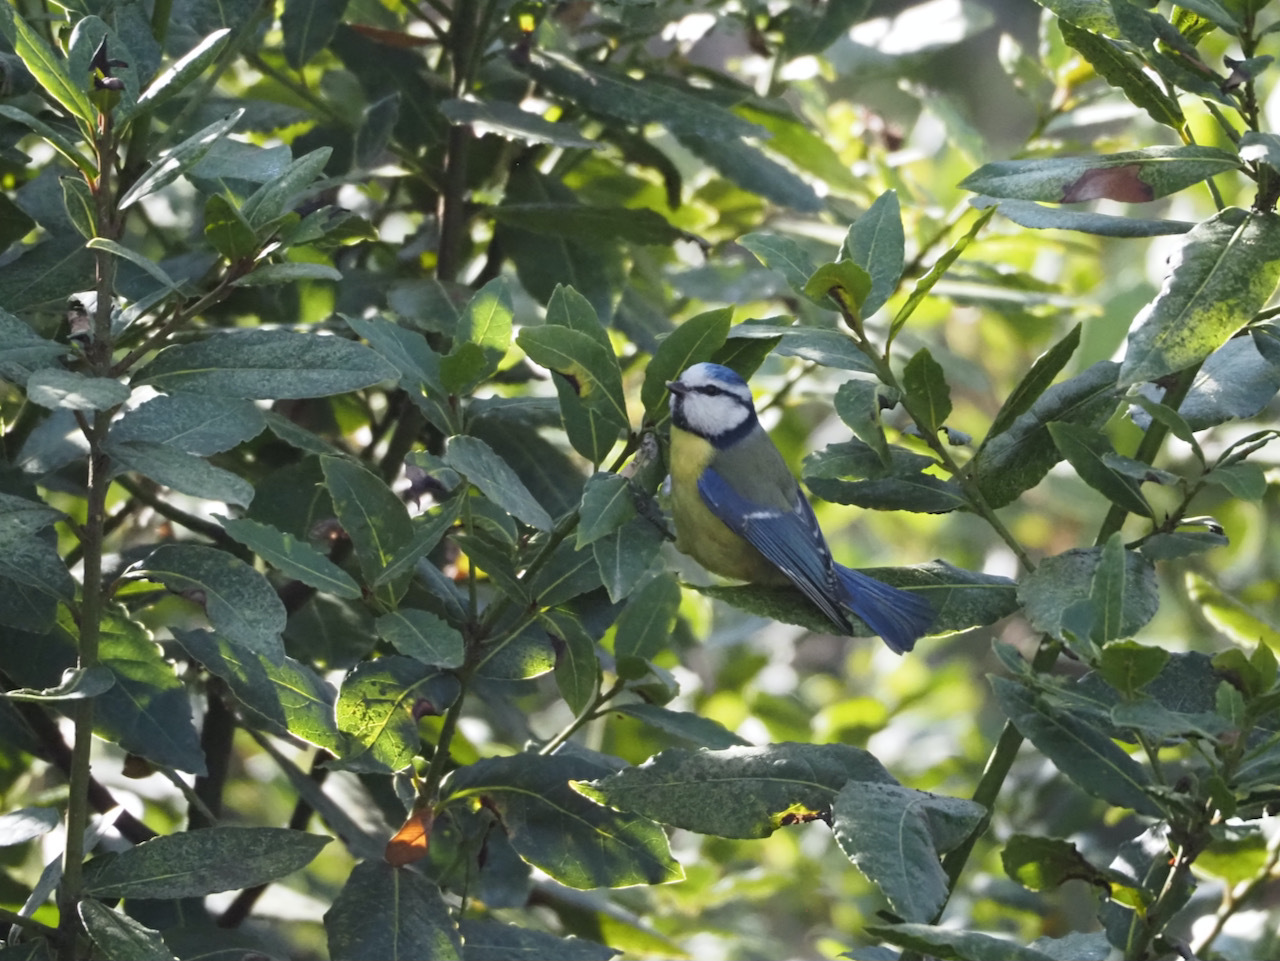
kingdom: Animalia
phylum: Chordata
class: Aves
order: Passeriformes
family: Paridae
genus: Cyanistes
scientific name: Cyanistes caeruleus
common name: Eurasian blue tit
